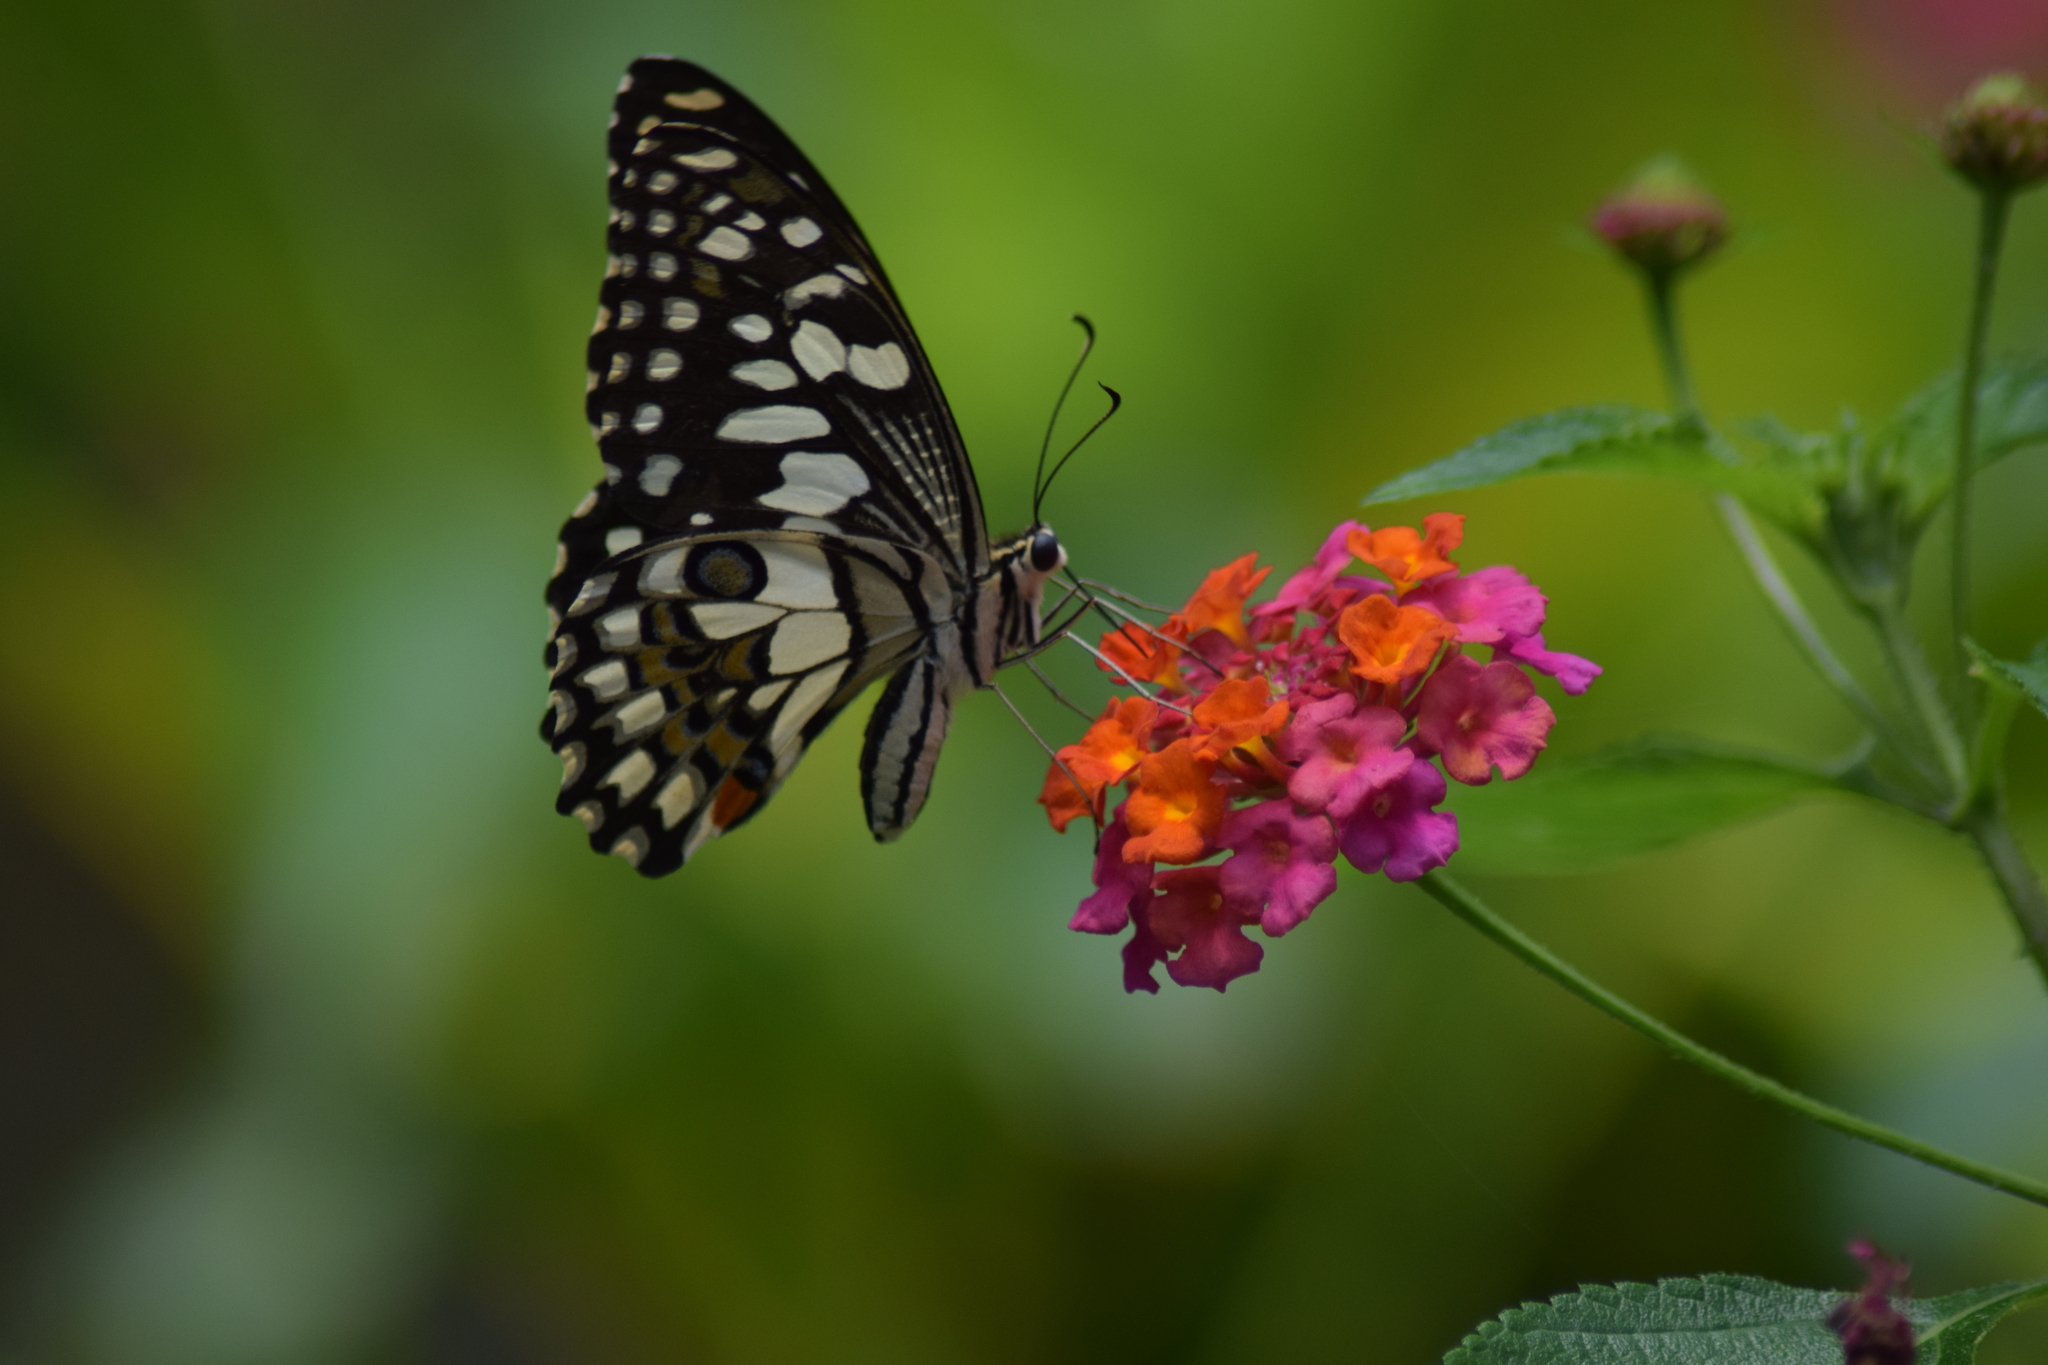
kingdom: Animalia
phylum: Arthropoda
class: Insecta
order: Lepidoptera
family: Papilionidae
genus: Papilio
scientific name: Papilio demoleus
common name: Lime butterfly
